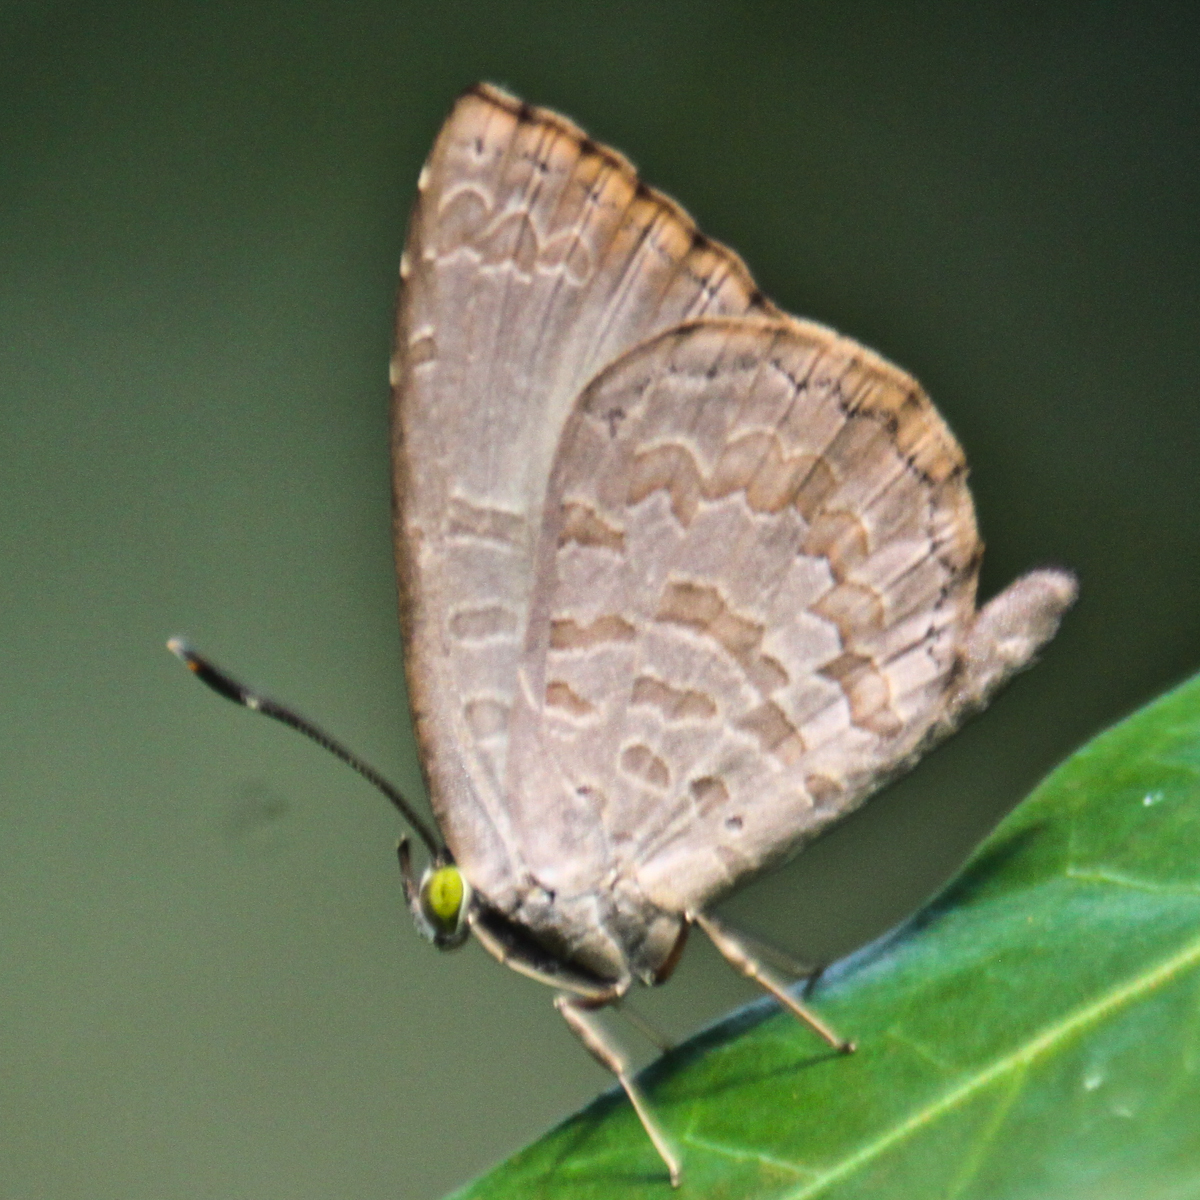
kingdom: Animalia
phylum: Arthropoda
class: Insecta
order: Lepidoptera
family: Lycaenidae
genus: Miletus
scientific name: Miletus chinensis
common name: Common brownie
